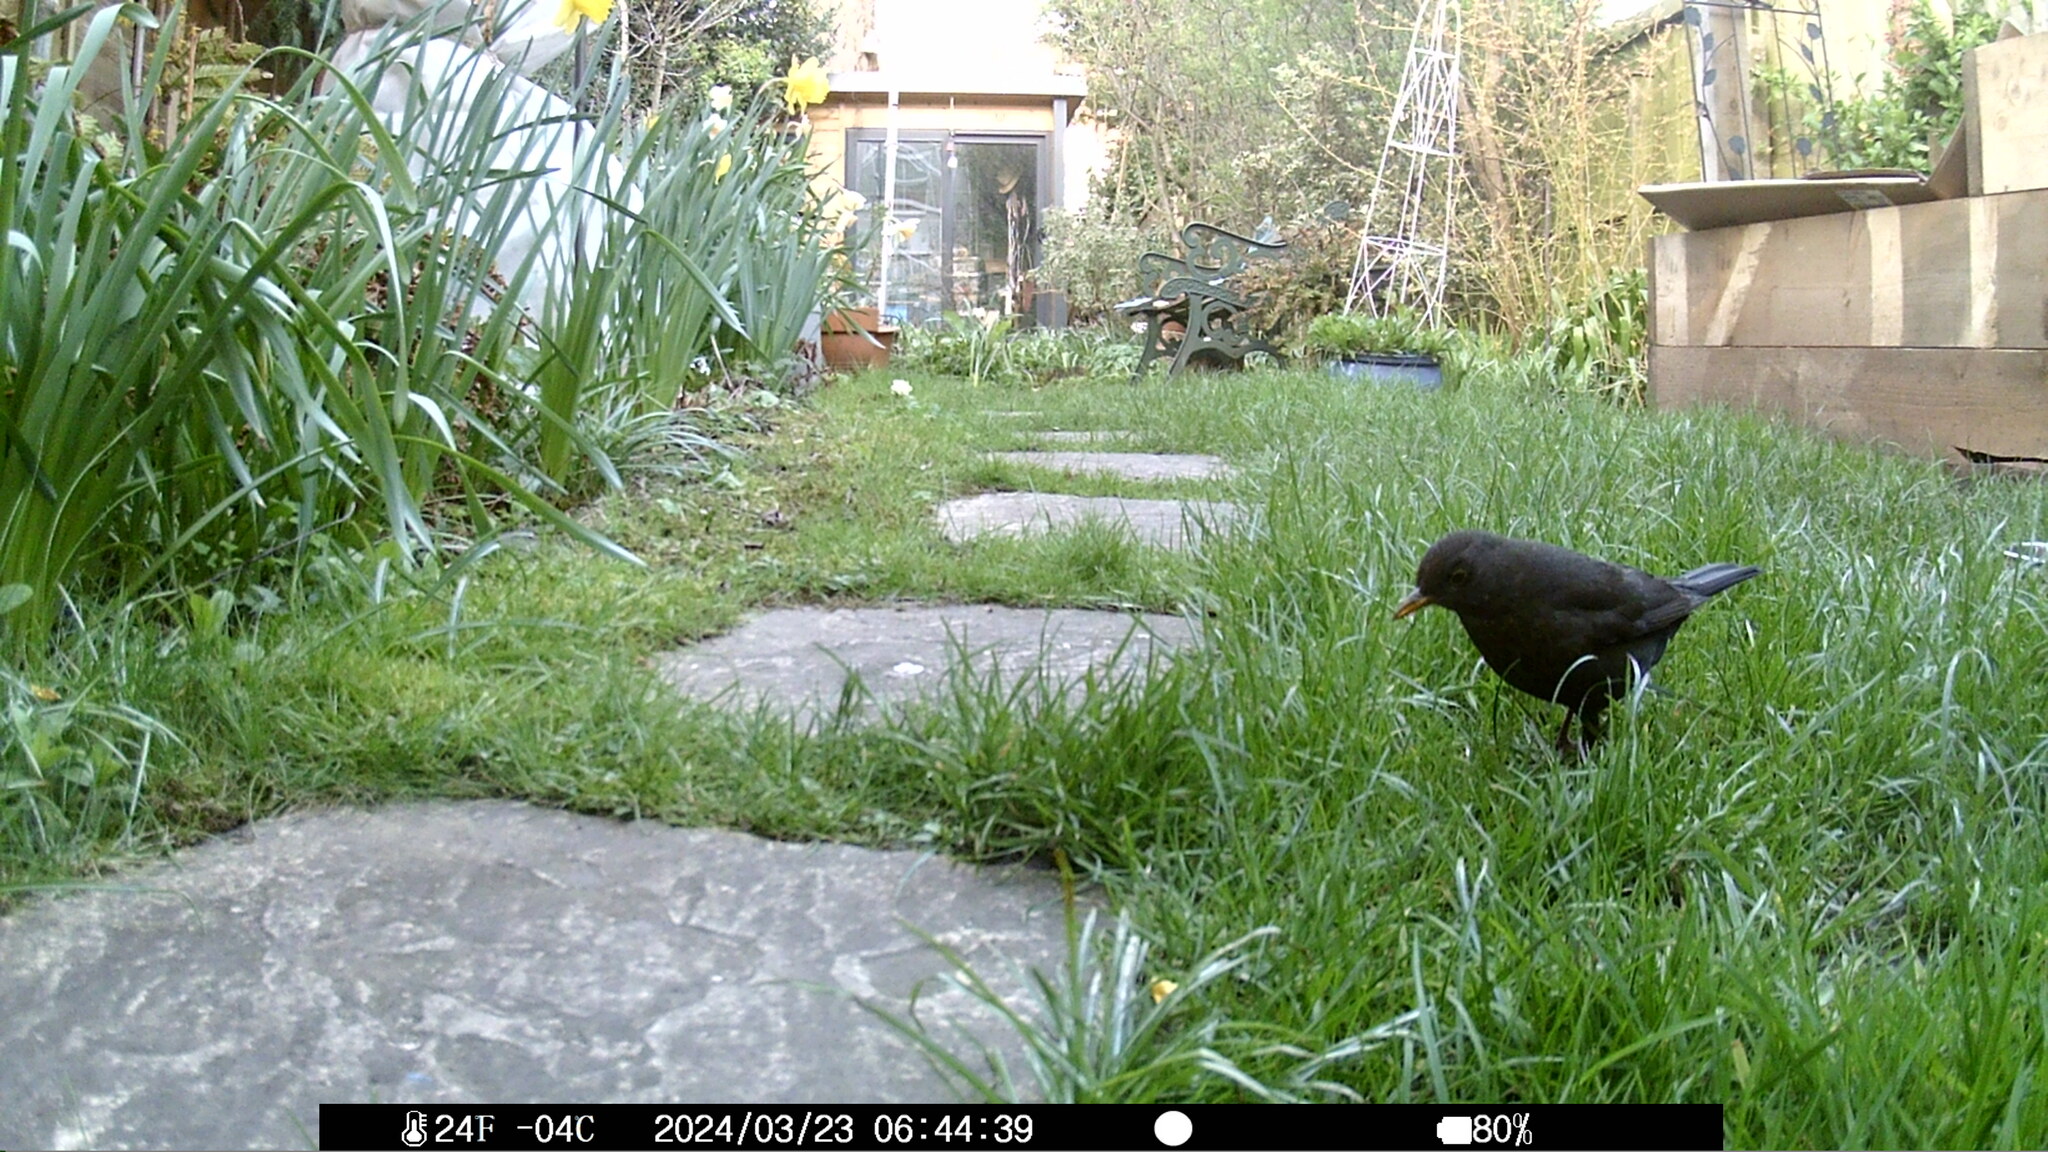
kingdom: Animalia
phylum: Chordata
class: Aves
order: Passeriformes
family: Turdidae
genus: Turdus
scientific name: Turdus merula
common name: Common blackbird
